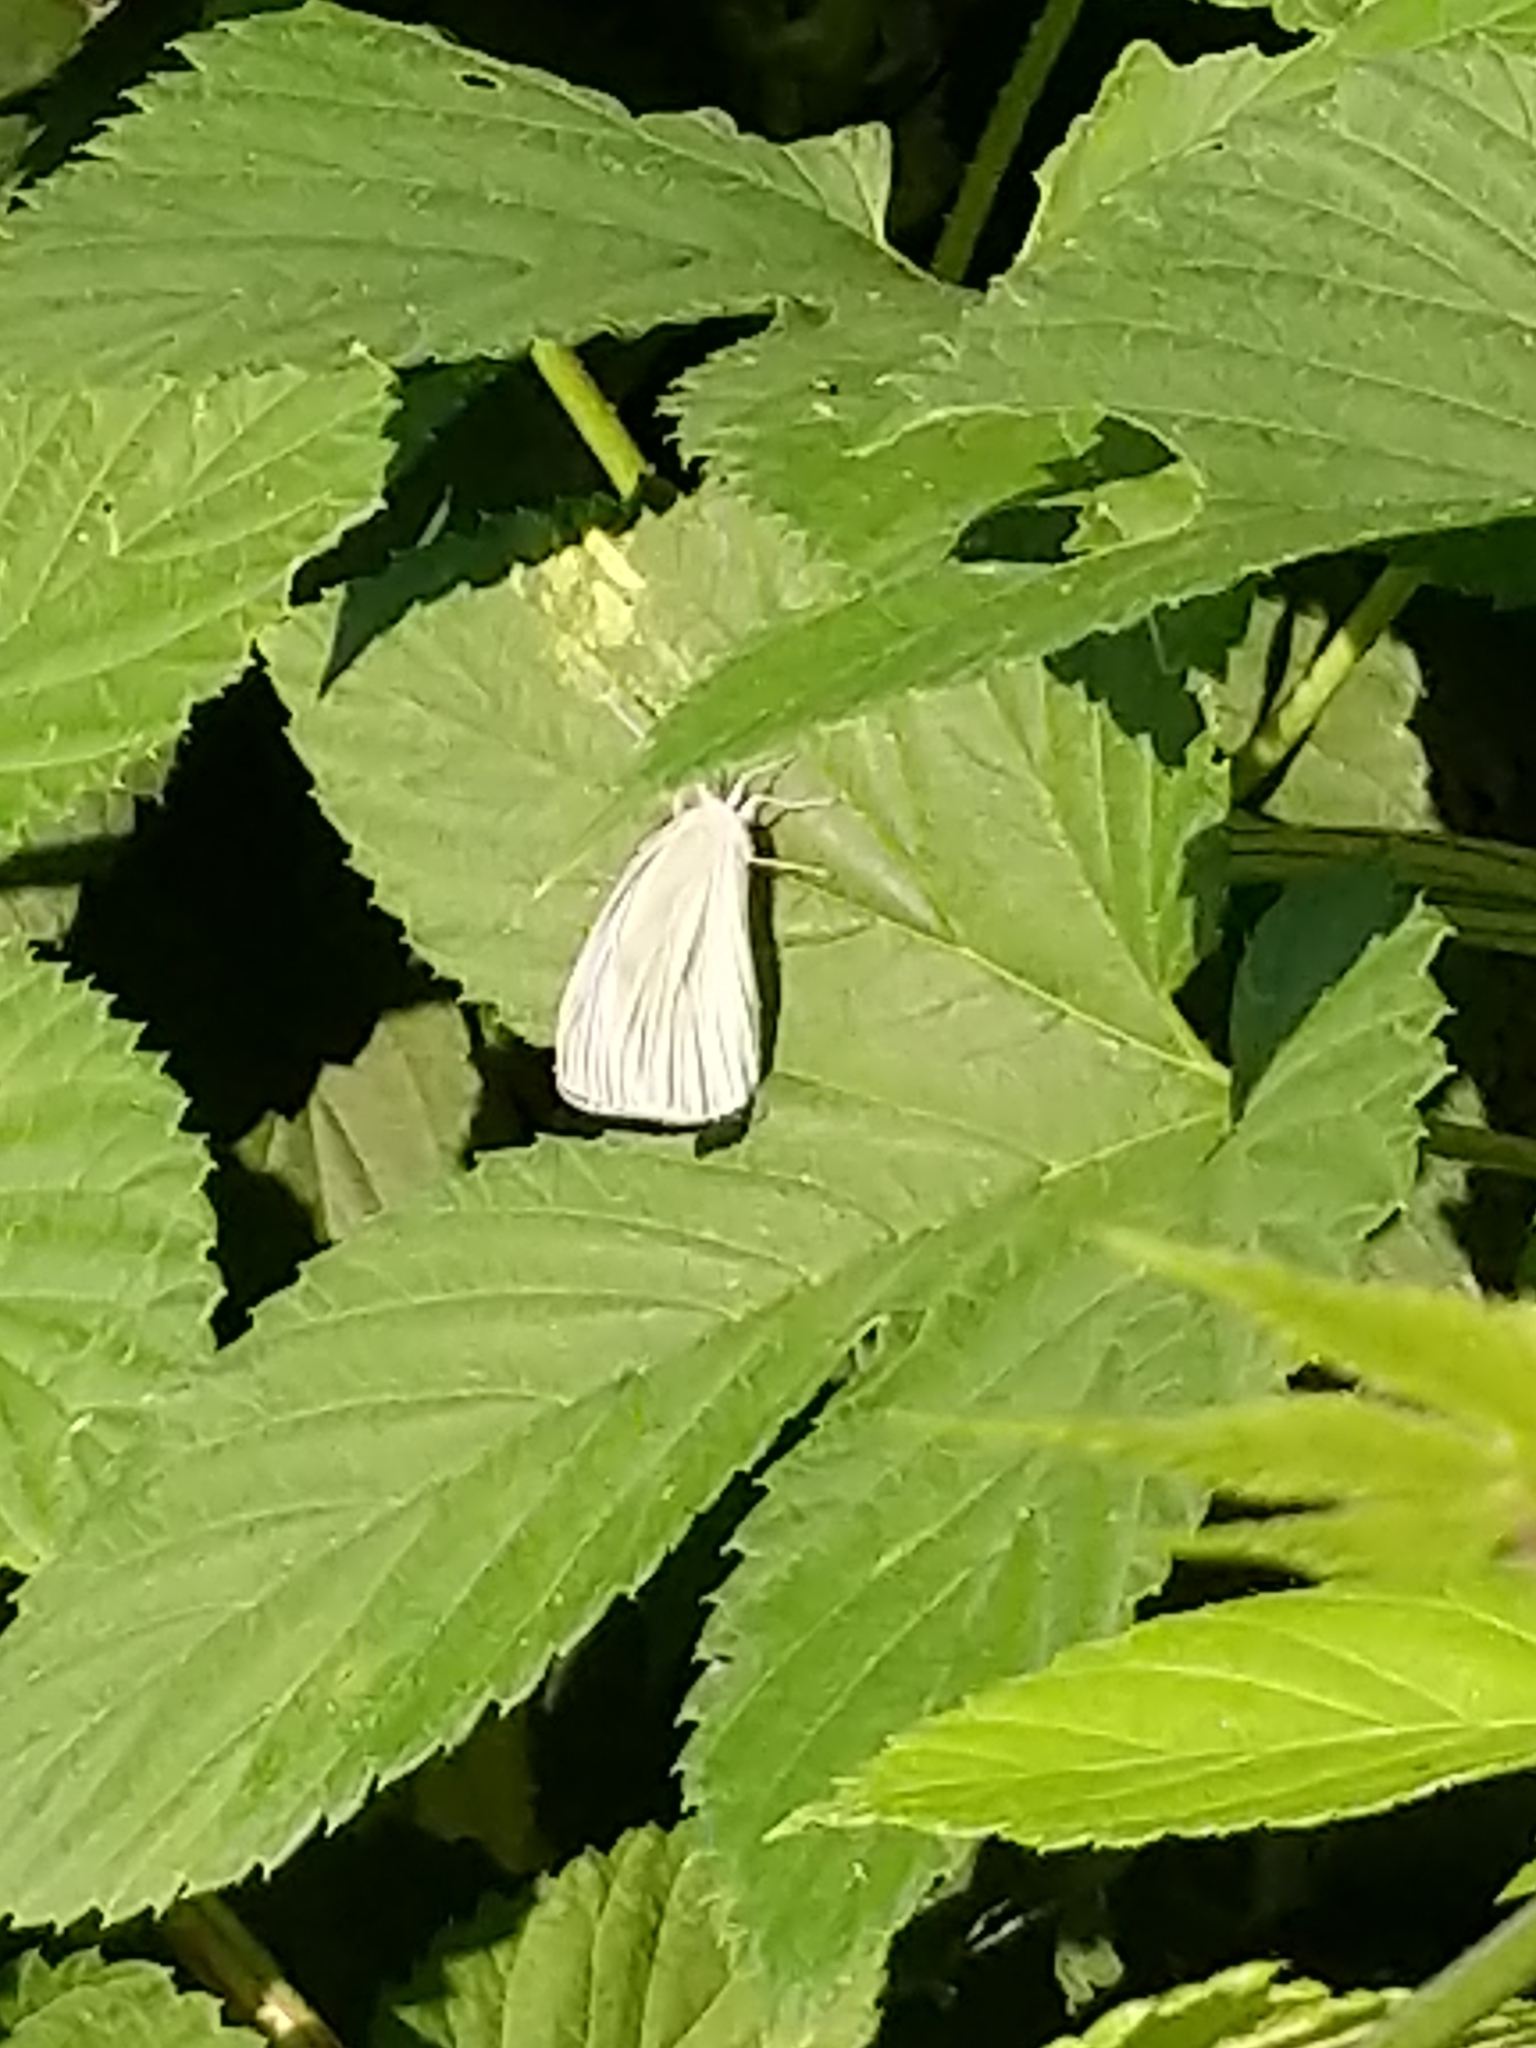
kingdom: Animalia
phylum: Arthropoda
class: Insecta
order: Lepidoptera
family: Pieridae
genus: Pieris
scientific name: Pieris rapae
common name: Small white
